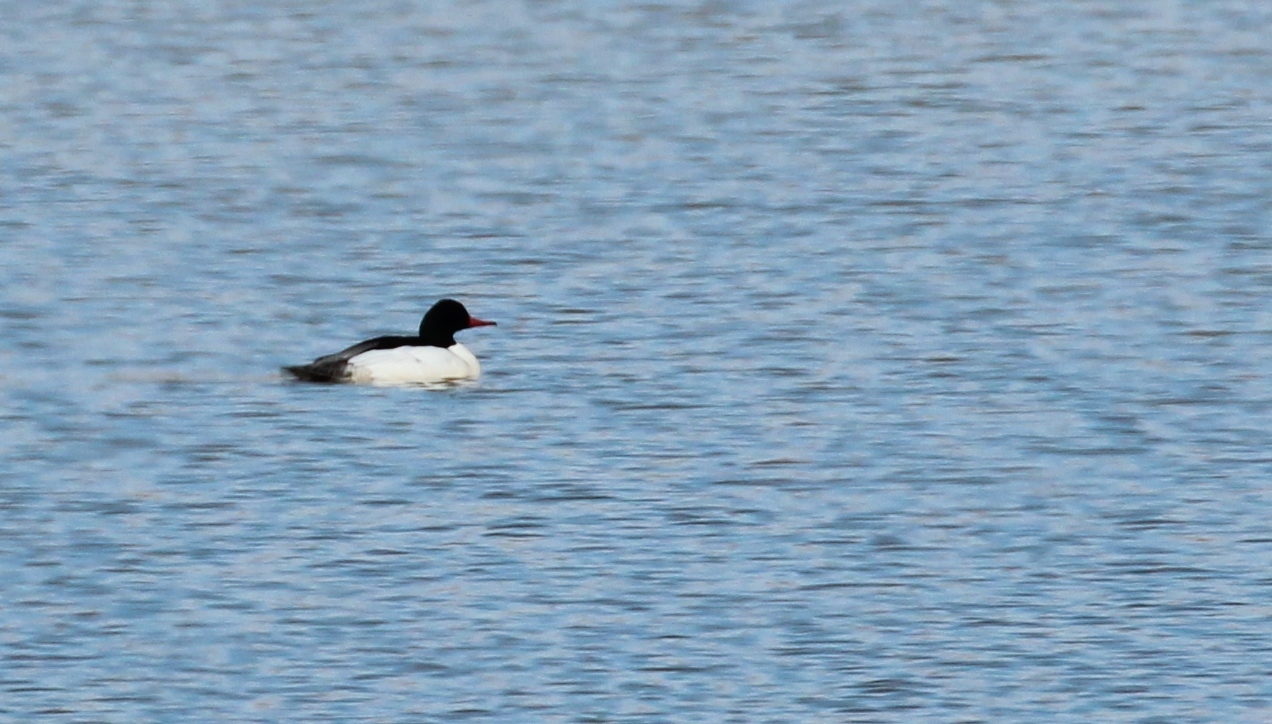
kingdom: Animalia
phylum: Chordata
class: Aves
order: Anseriformes
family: Anatidae
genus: Mergus
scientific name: Mergus merganser
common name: Common merganser
